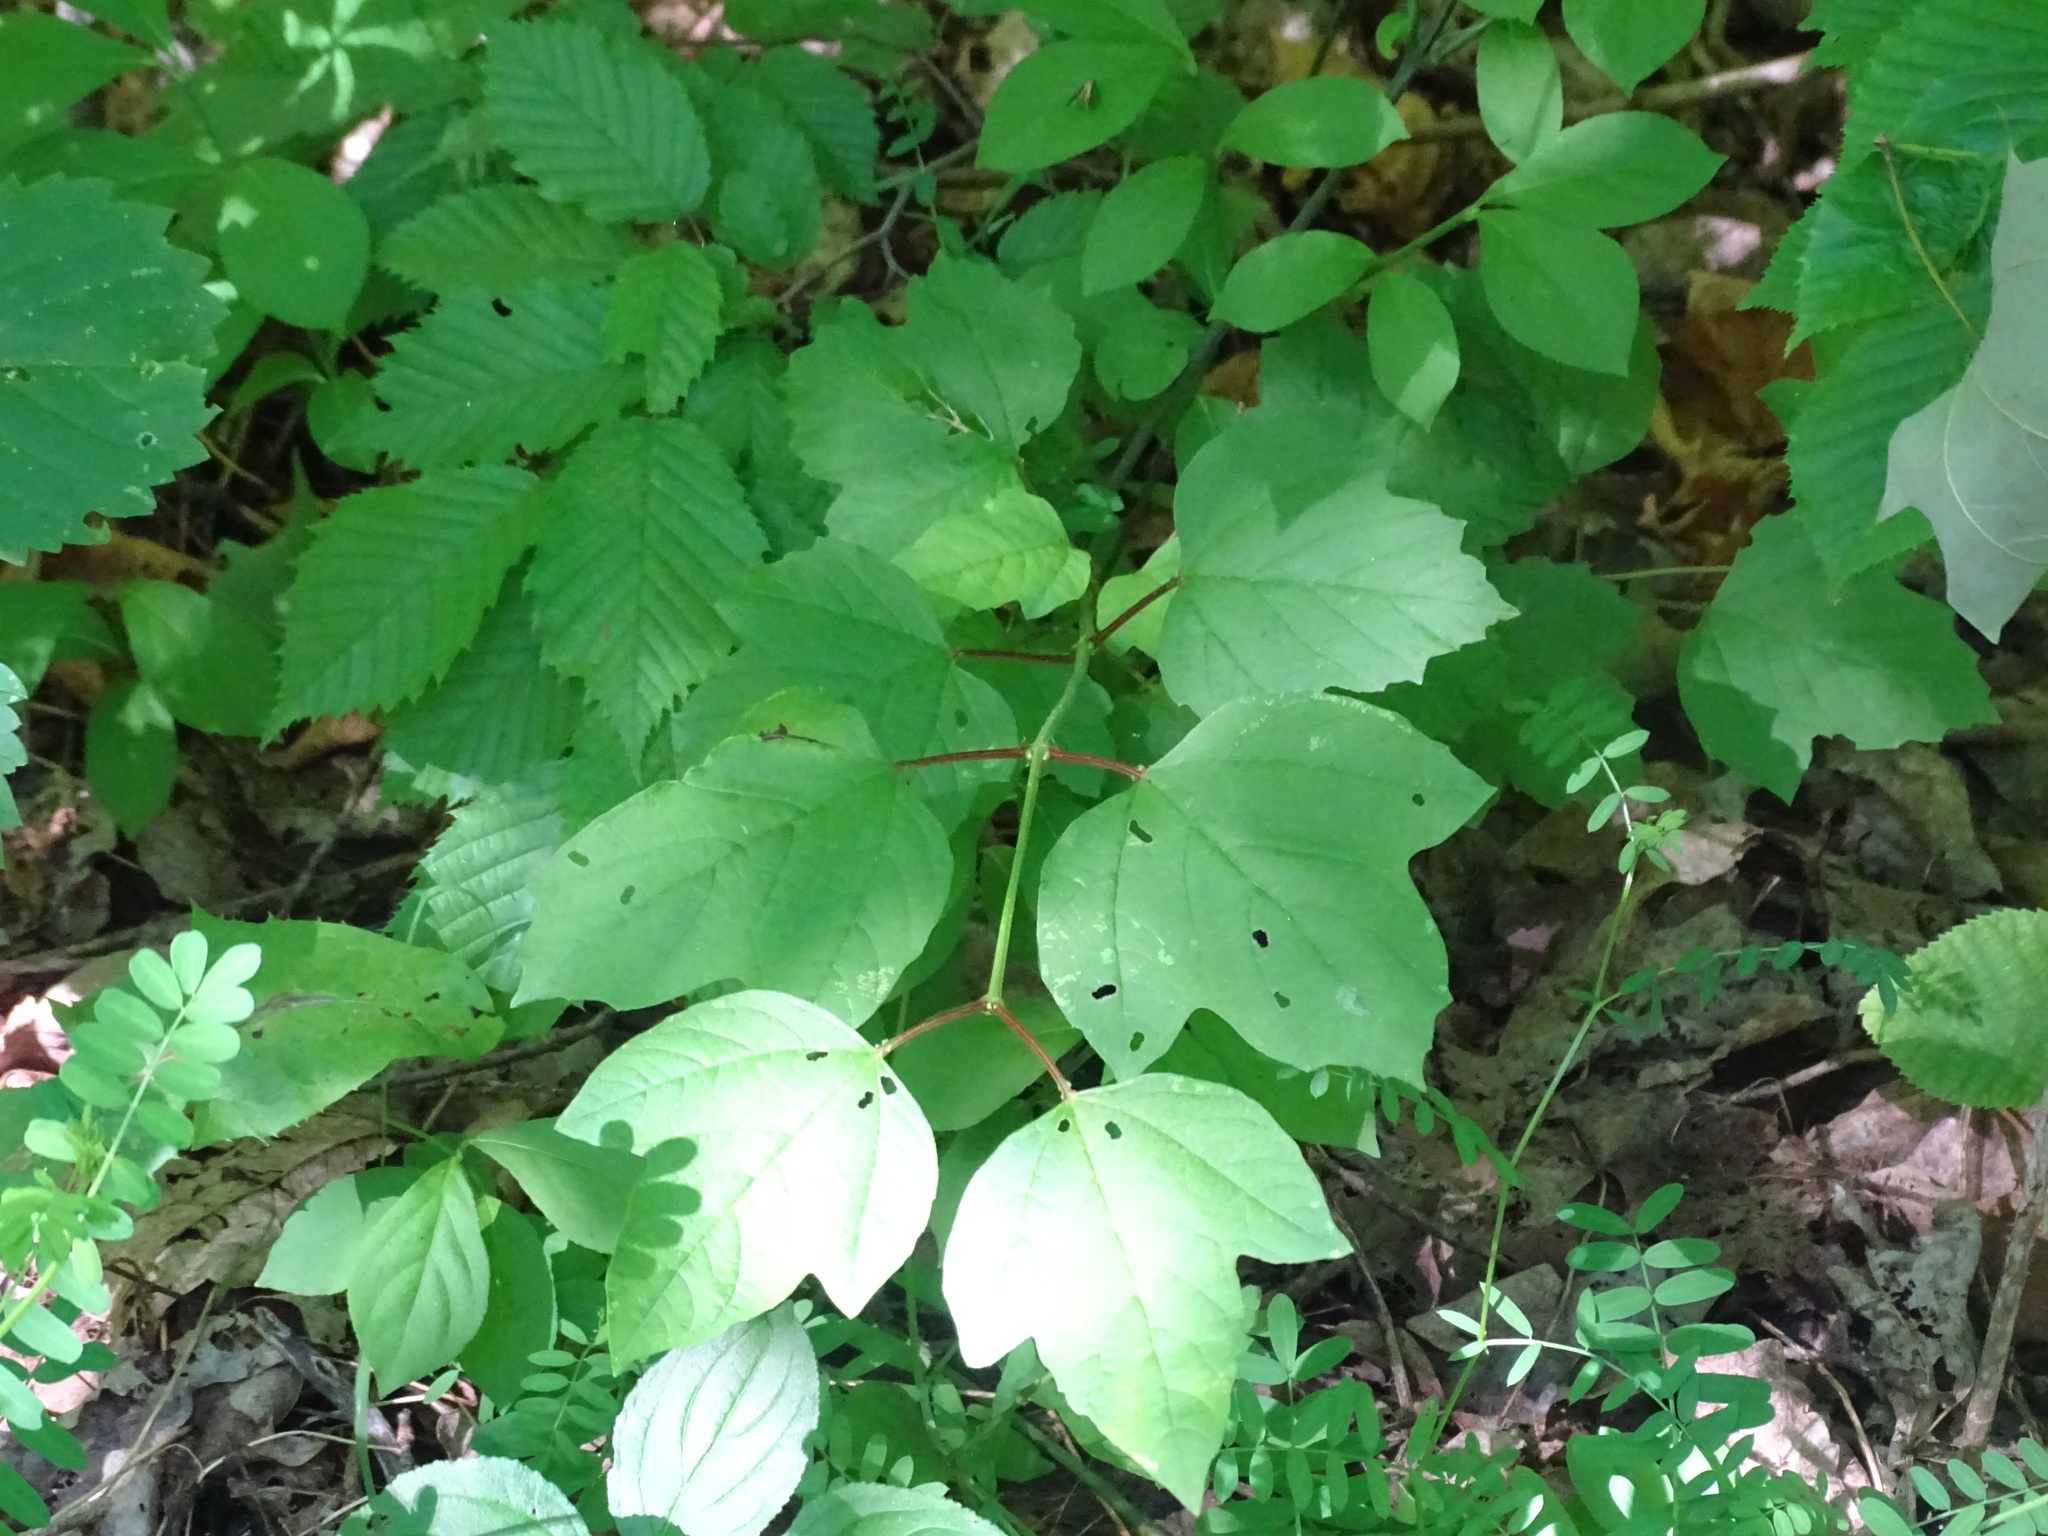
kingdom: Plantae
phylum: Tracheophyta
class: Magnoliopsida
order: Dipsacales
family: Viburnaceae
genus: Viburnum
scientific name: Viburnum opulus
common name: Guelder-rose
